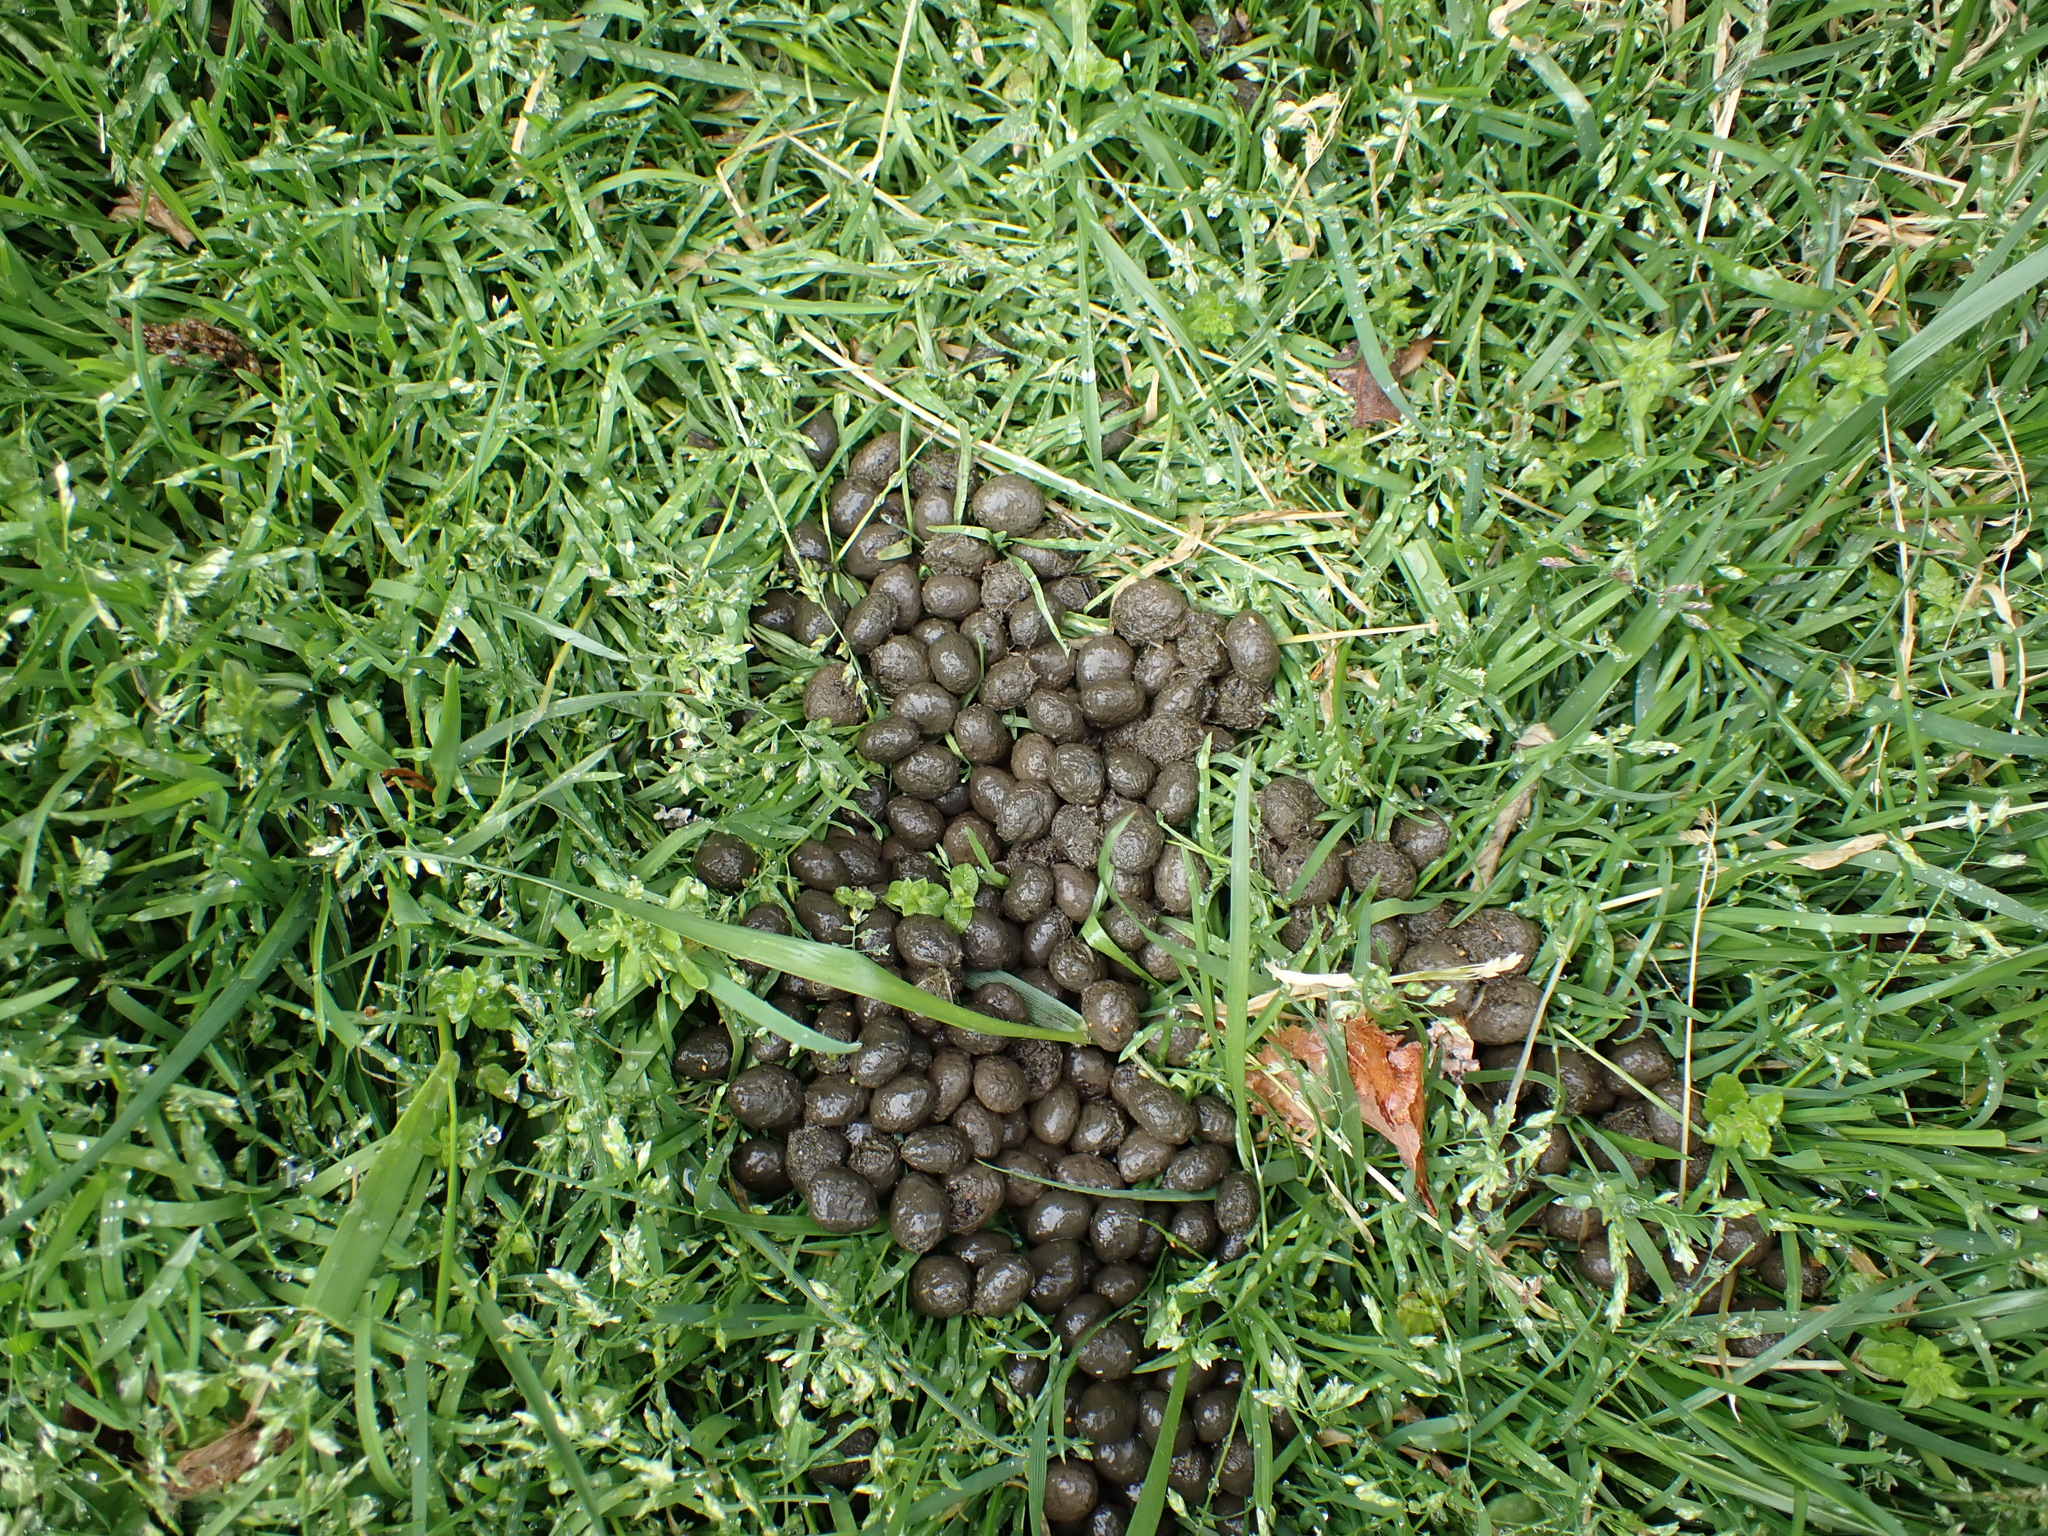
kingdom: Animalia
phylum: Chordata
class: Mammalia
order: Artiodactyla
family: Cervidae
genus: Odocoileus
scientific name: Odocoileus virginianus
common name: White-tailed deer
